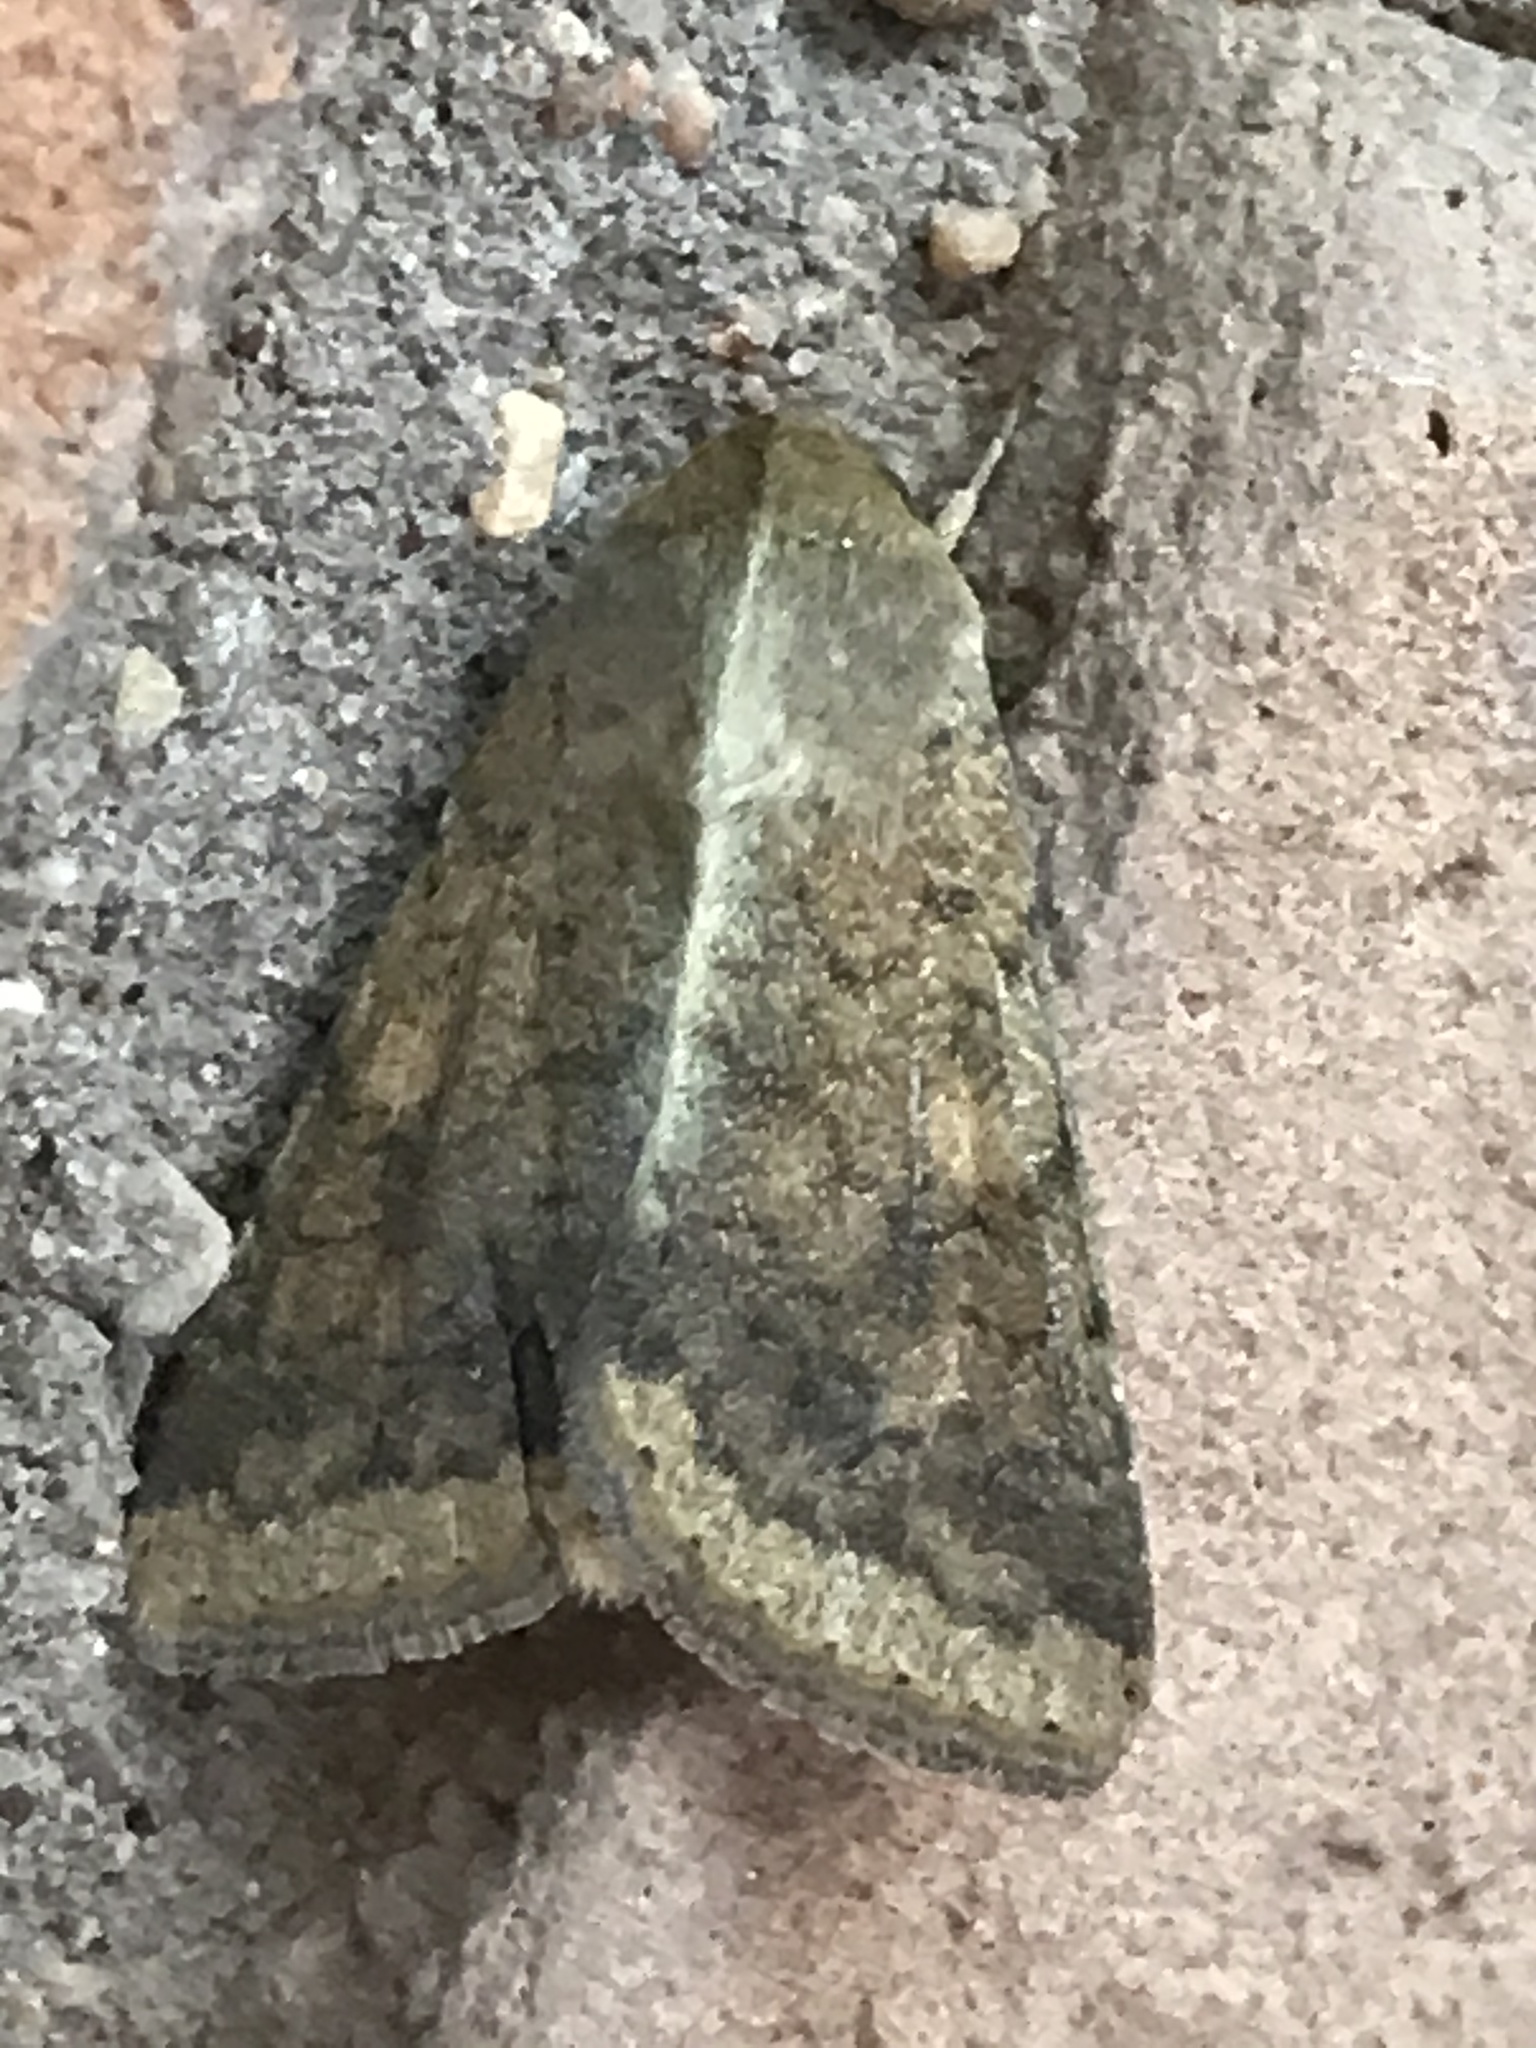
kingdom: Animalia
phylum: Arthropoda
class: Insecta
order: Lepidoptera
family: Noctuidae
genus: Helicoverpa
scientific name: Helicoverpa zea
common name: Bollworm
